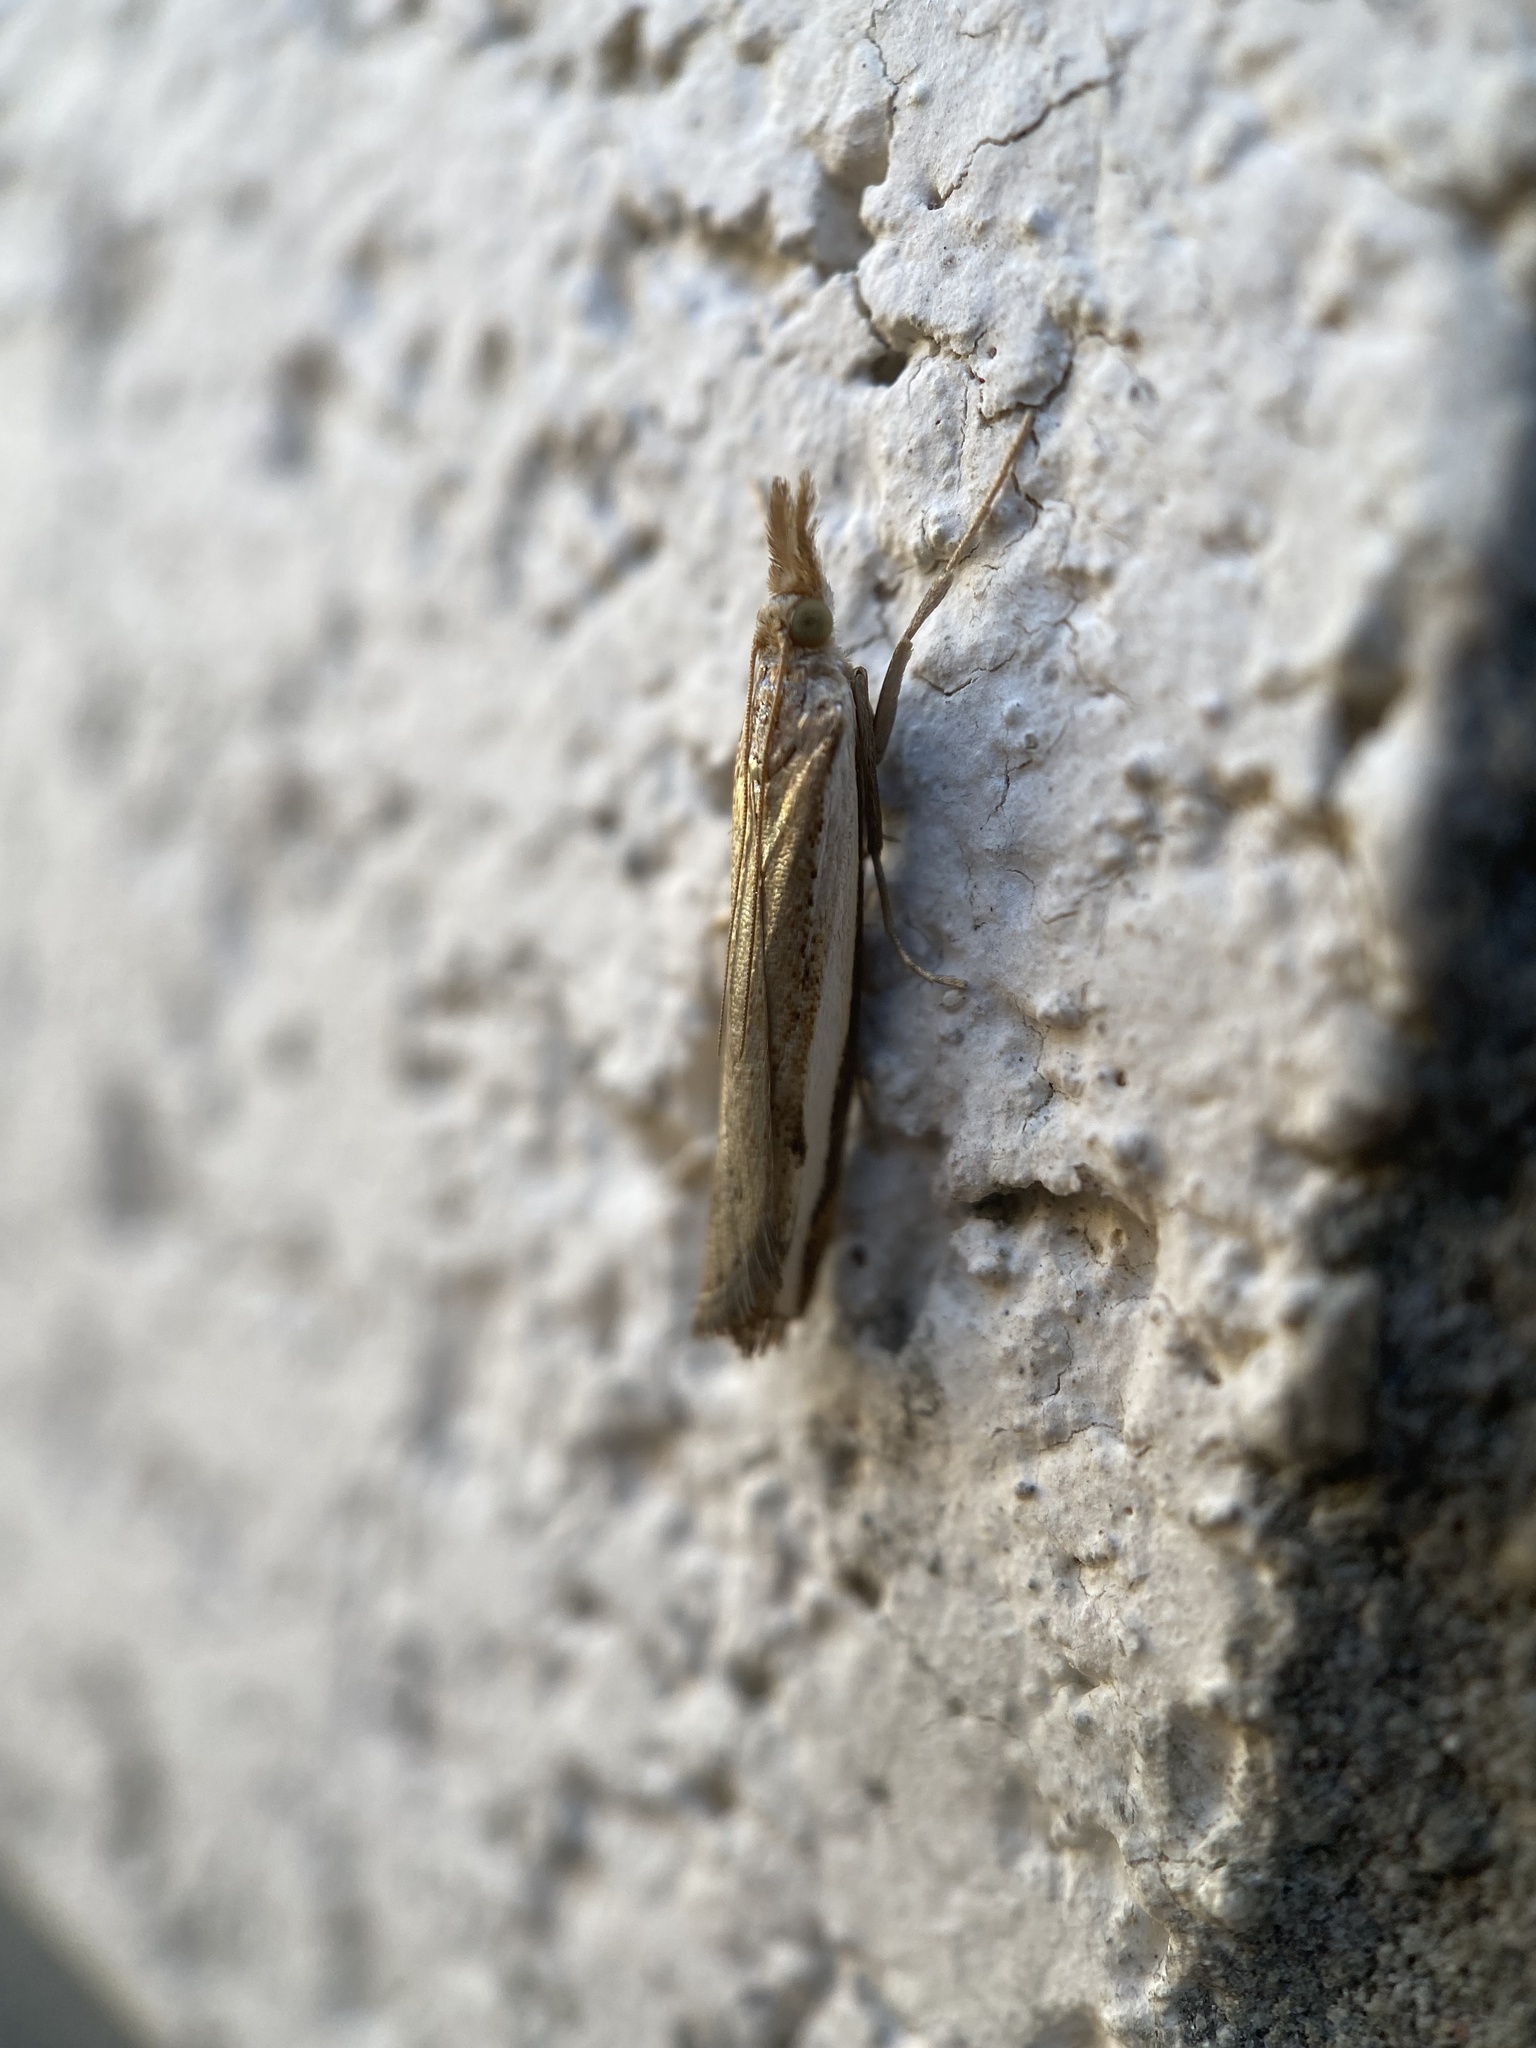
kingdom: Animalia
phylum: Arthropoda
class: Insecta
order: Lepidoptera
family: Crambidae
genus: Orocrambus
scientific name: Orocrambus flexuosellus
